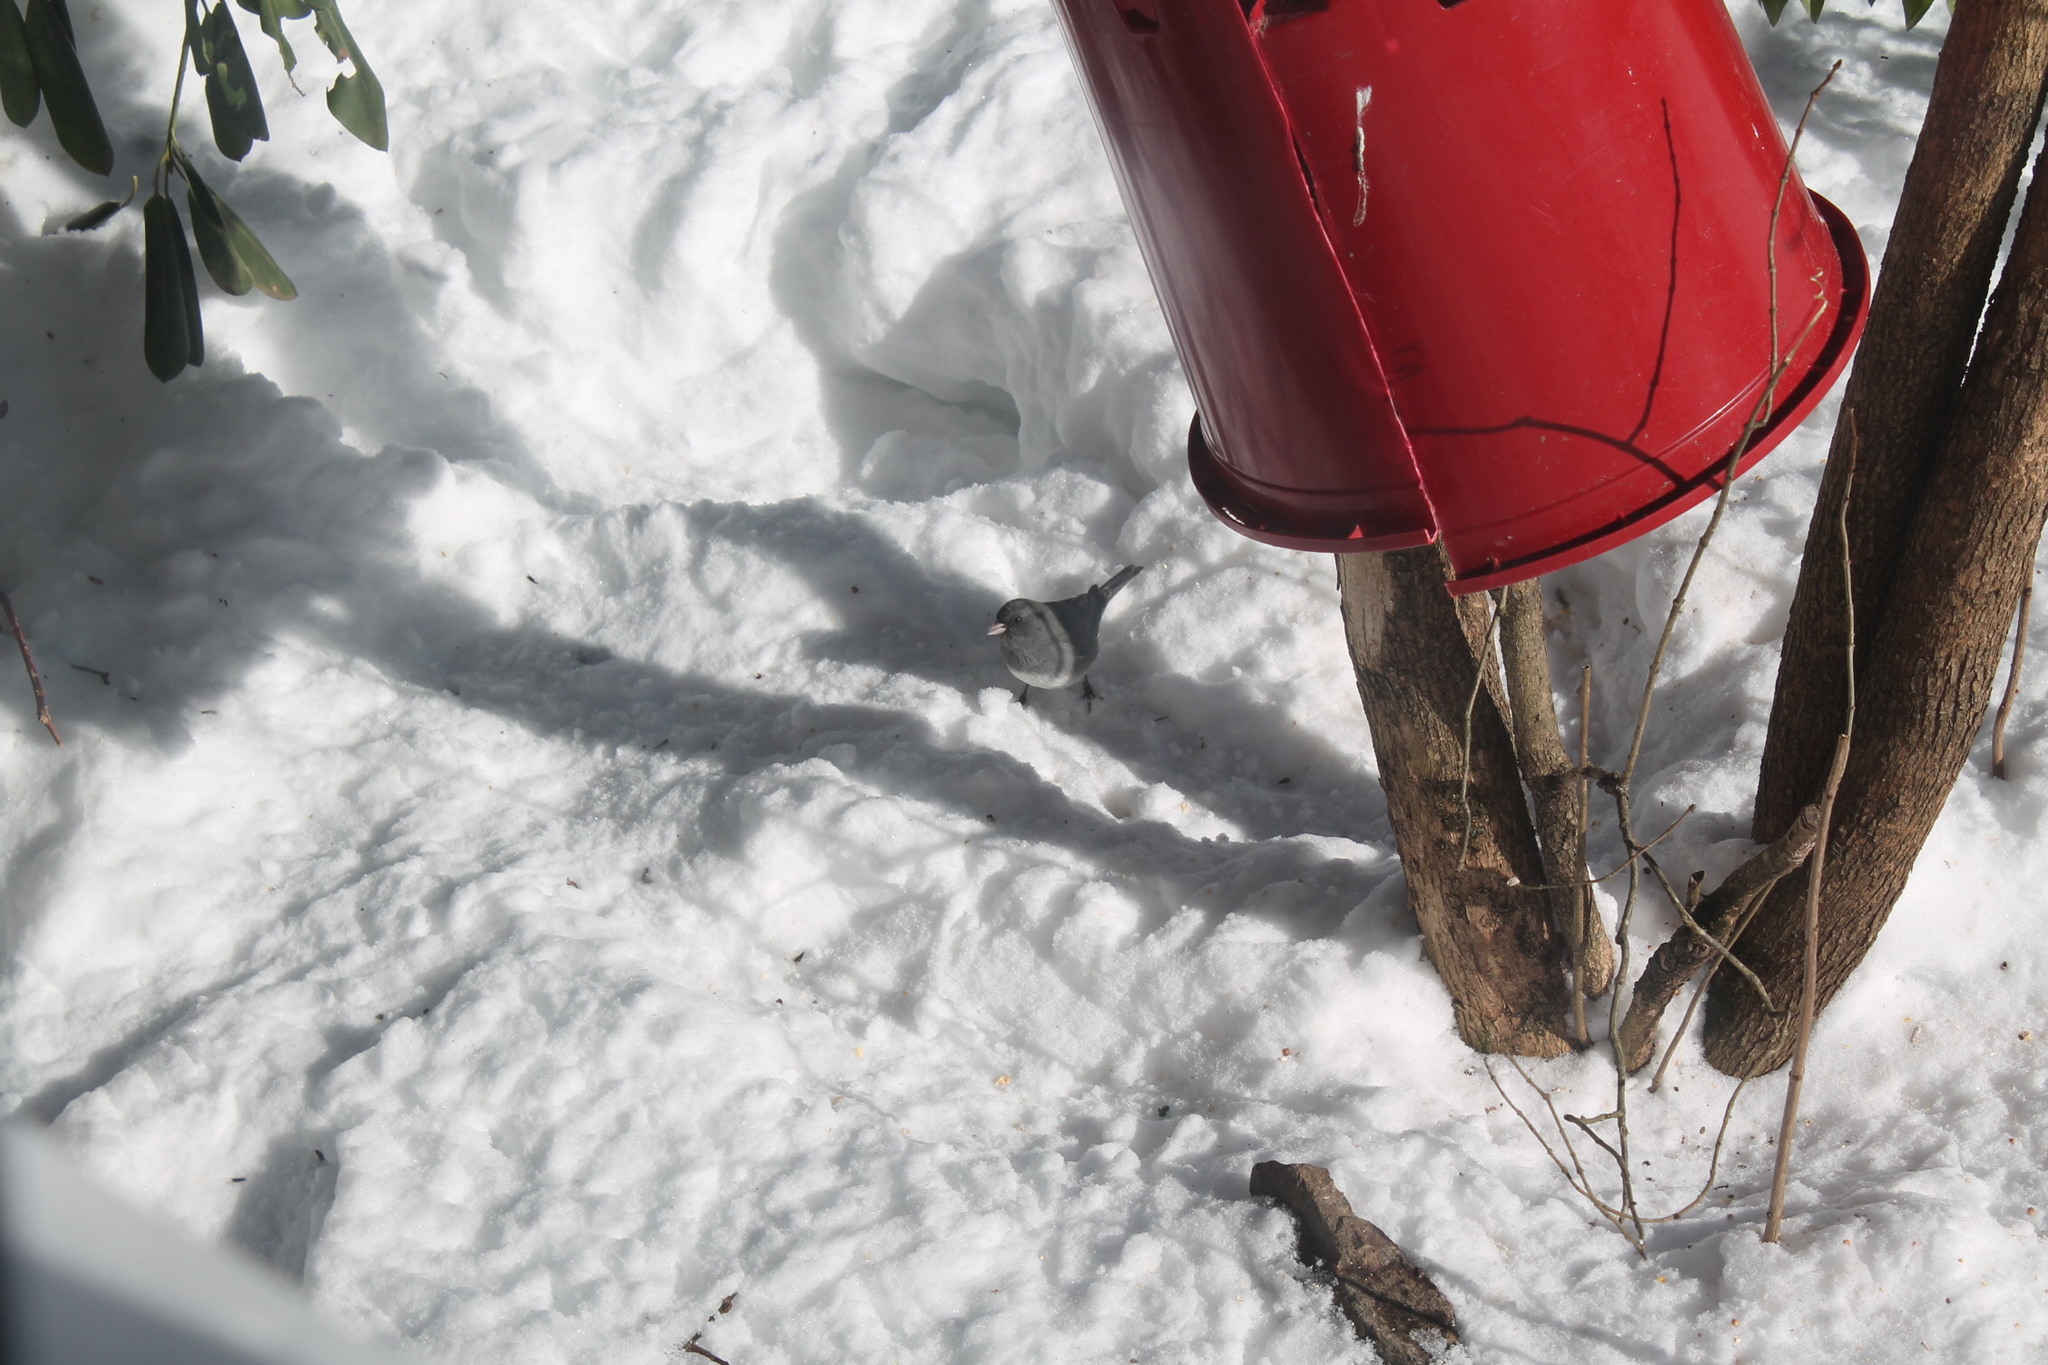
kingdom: Animalia
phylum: Chordata
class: Aves
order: Passeriformes
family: Passerellidae
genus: Junco
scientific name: Junco hyemalis
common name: Dark-eyed junco
